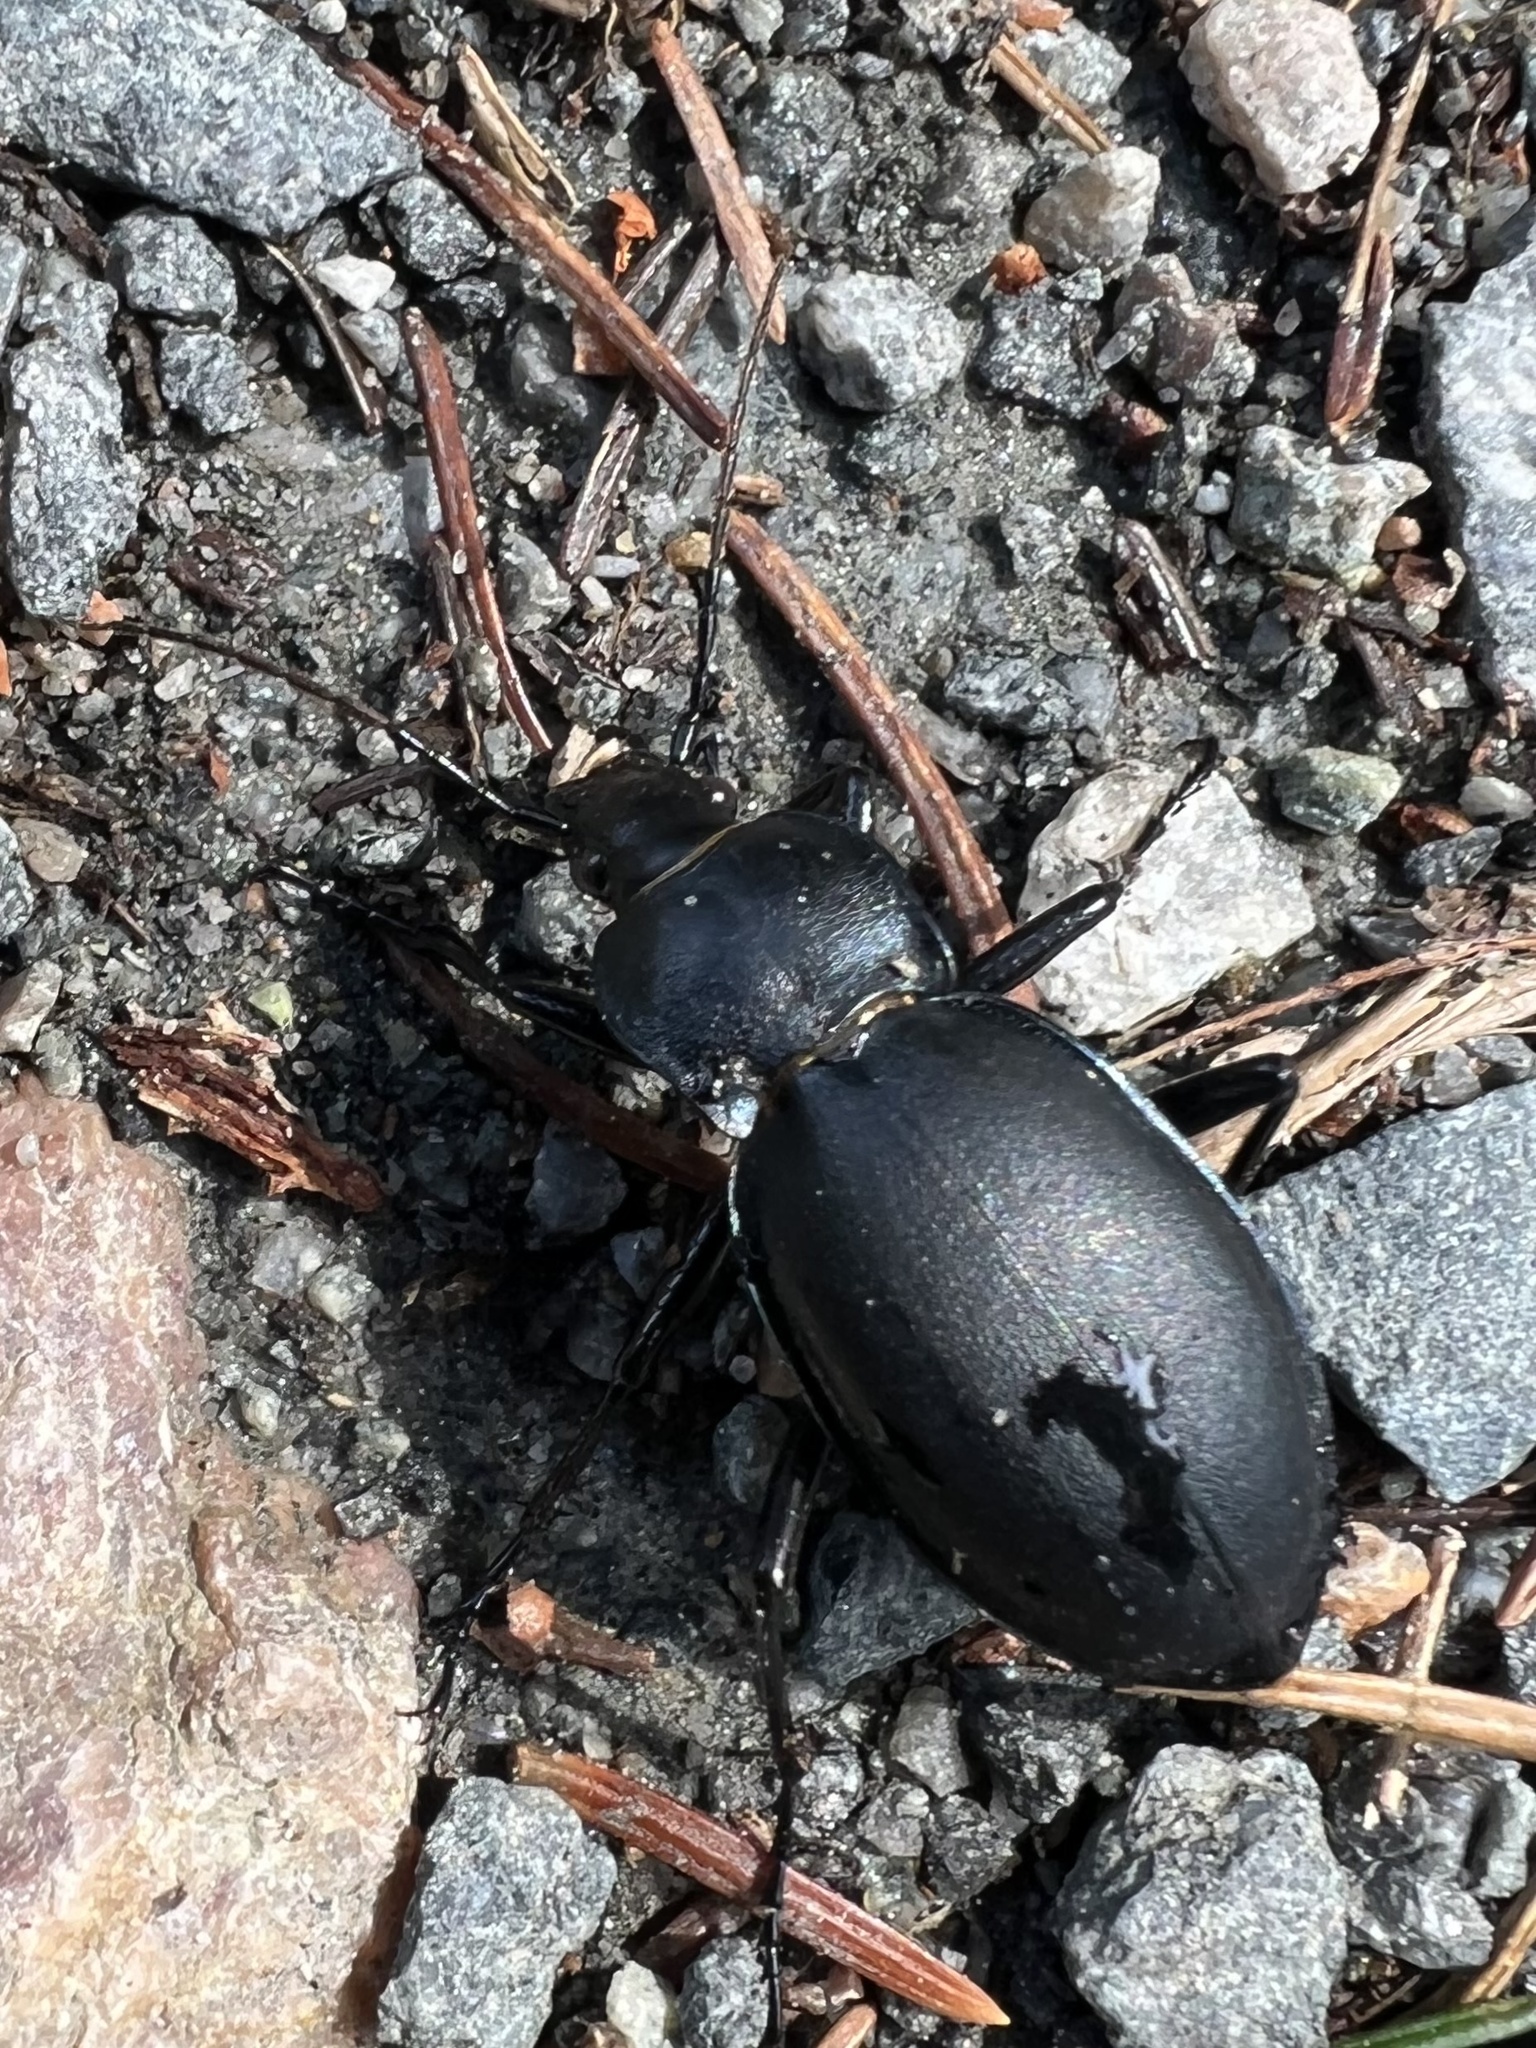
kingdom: Animalia
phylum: Arthropoda
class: Insecta
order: Coleoptera
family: Carabidae
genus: Carabus
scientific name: Carabus glabratus
